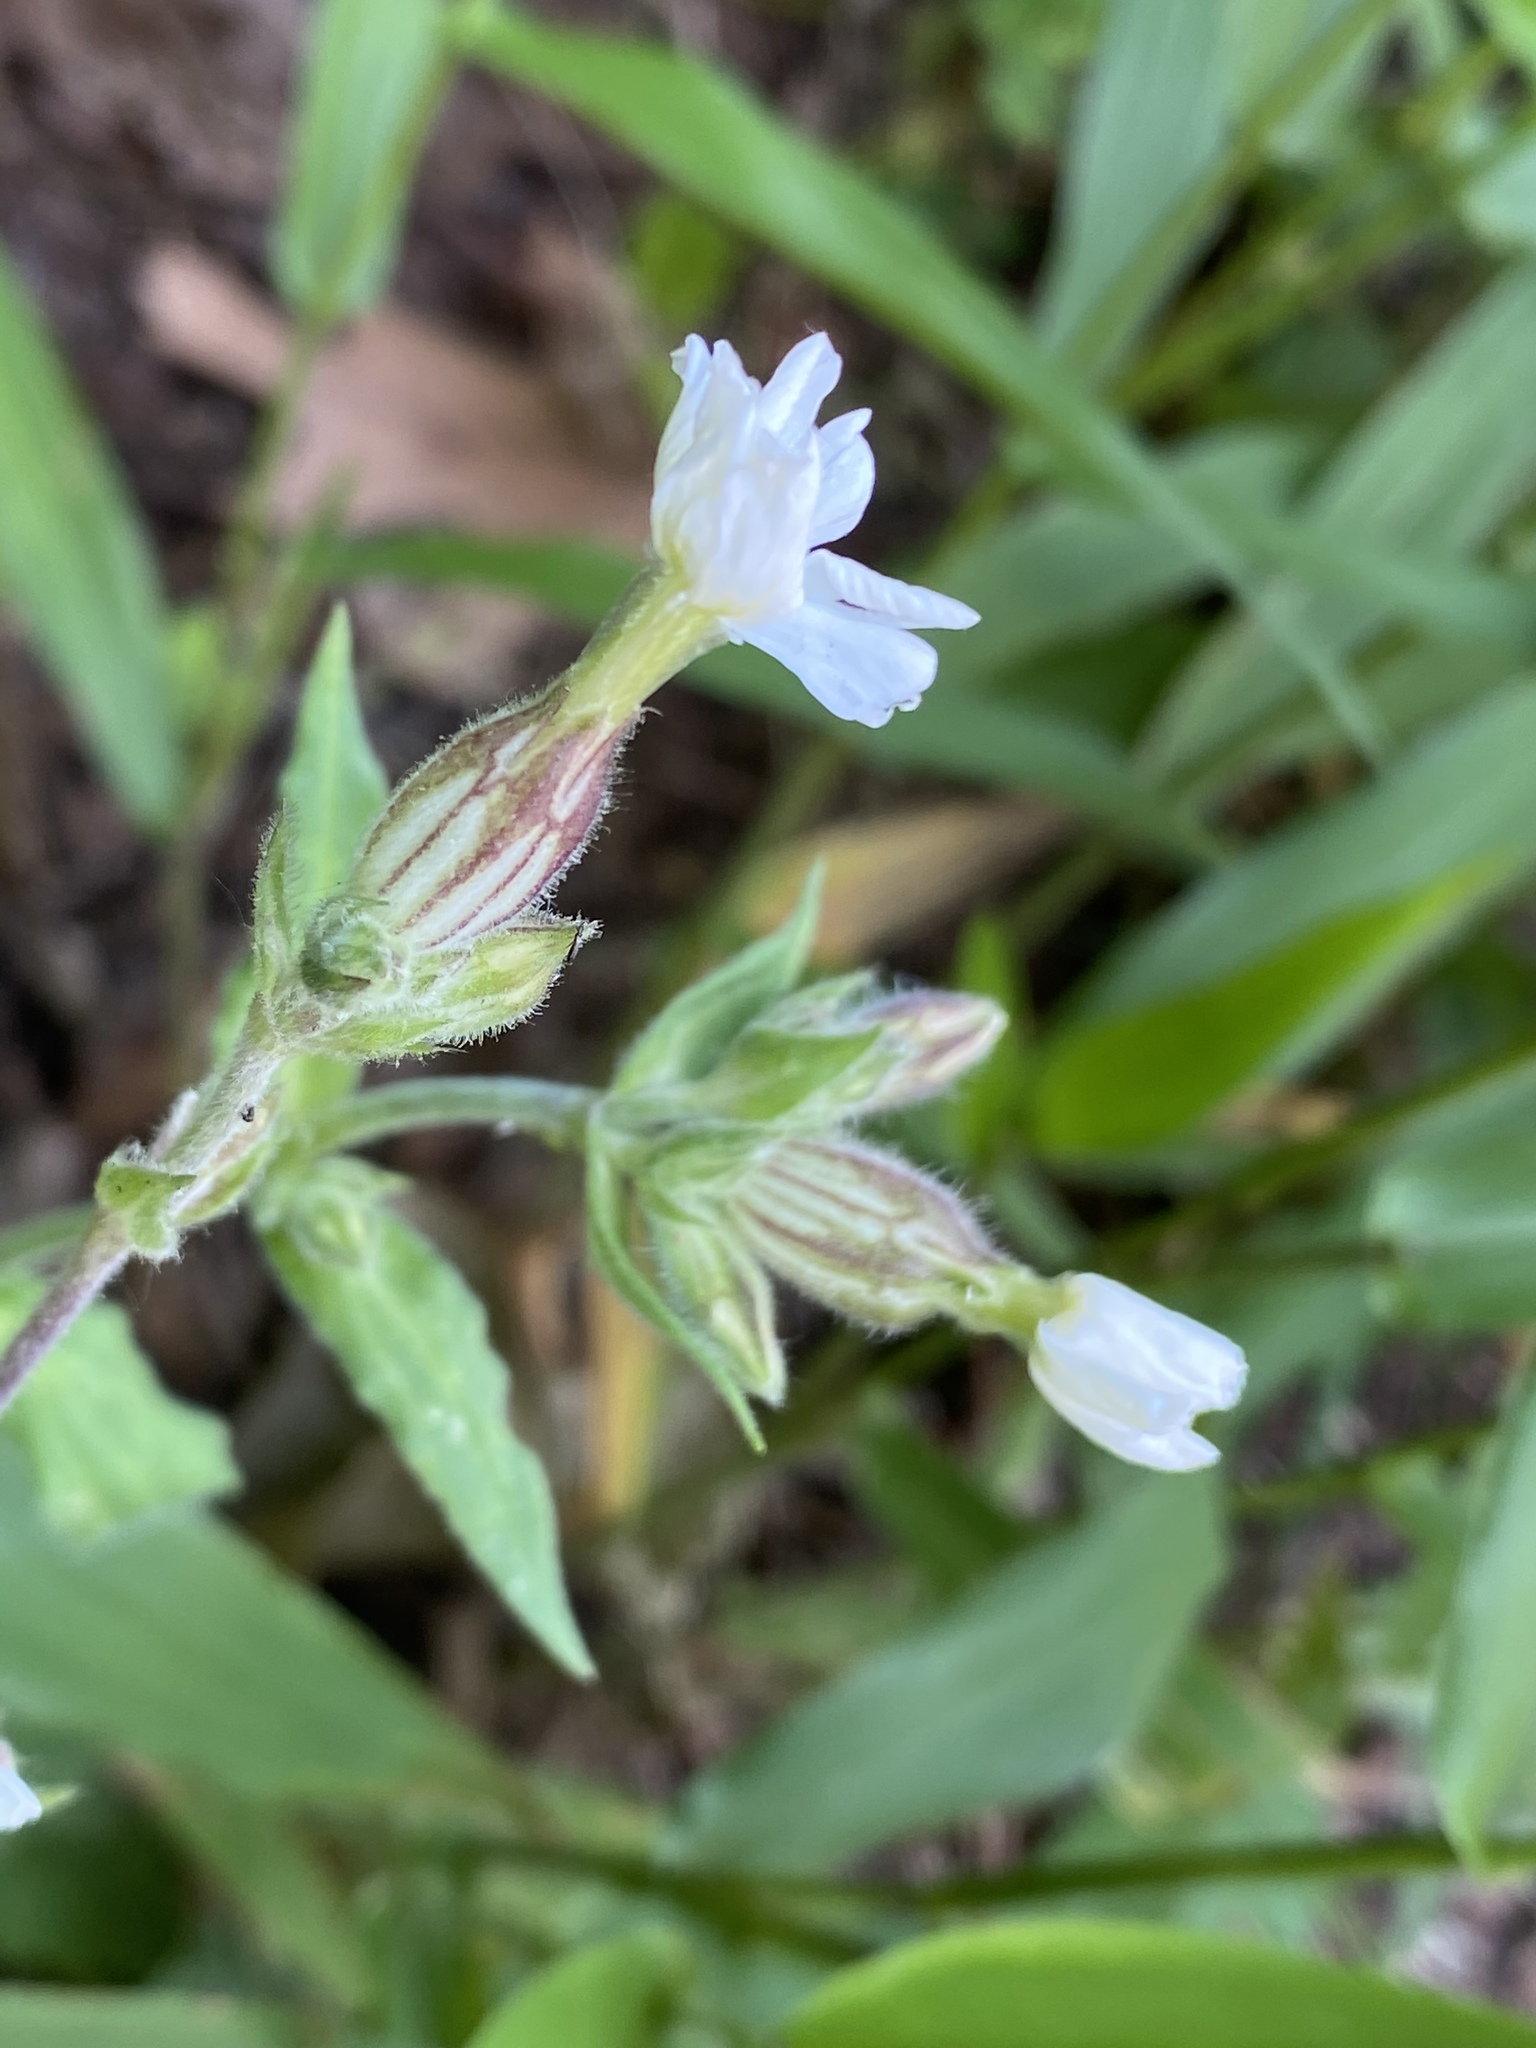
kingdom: Plantae
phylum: Tracheophyta
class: Magnoliopsida
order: Caryophyllales
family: Caryophyllaceae
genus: Silene
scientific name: Silene latifolia
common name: White campion
